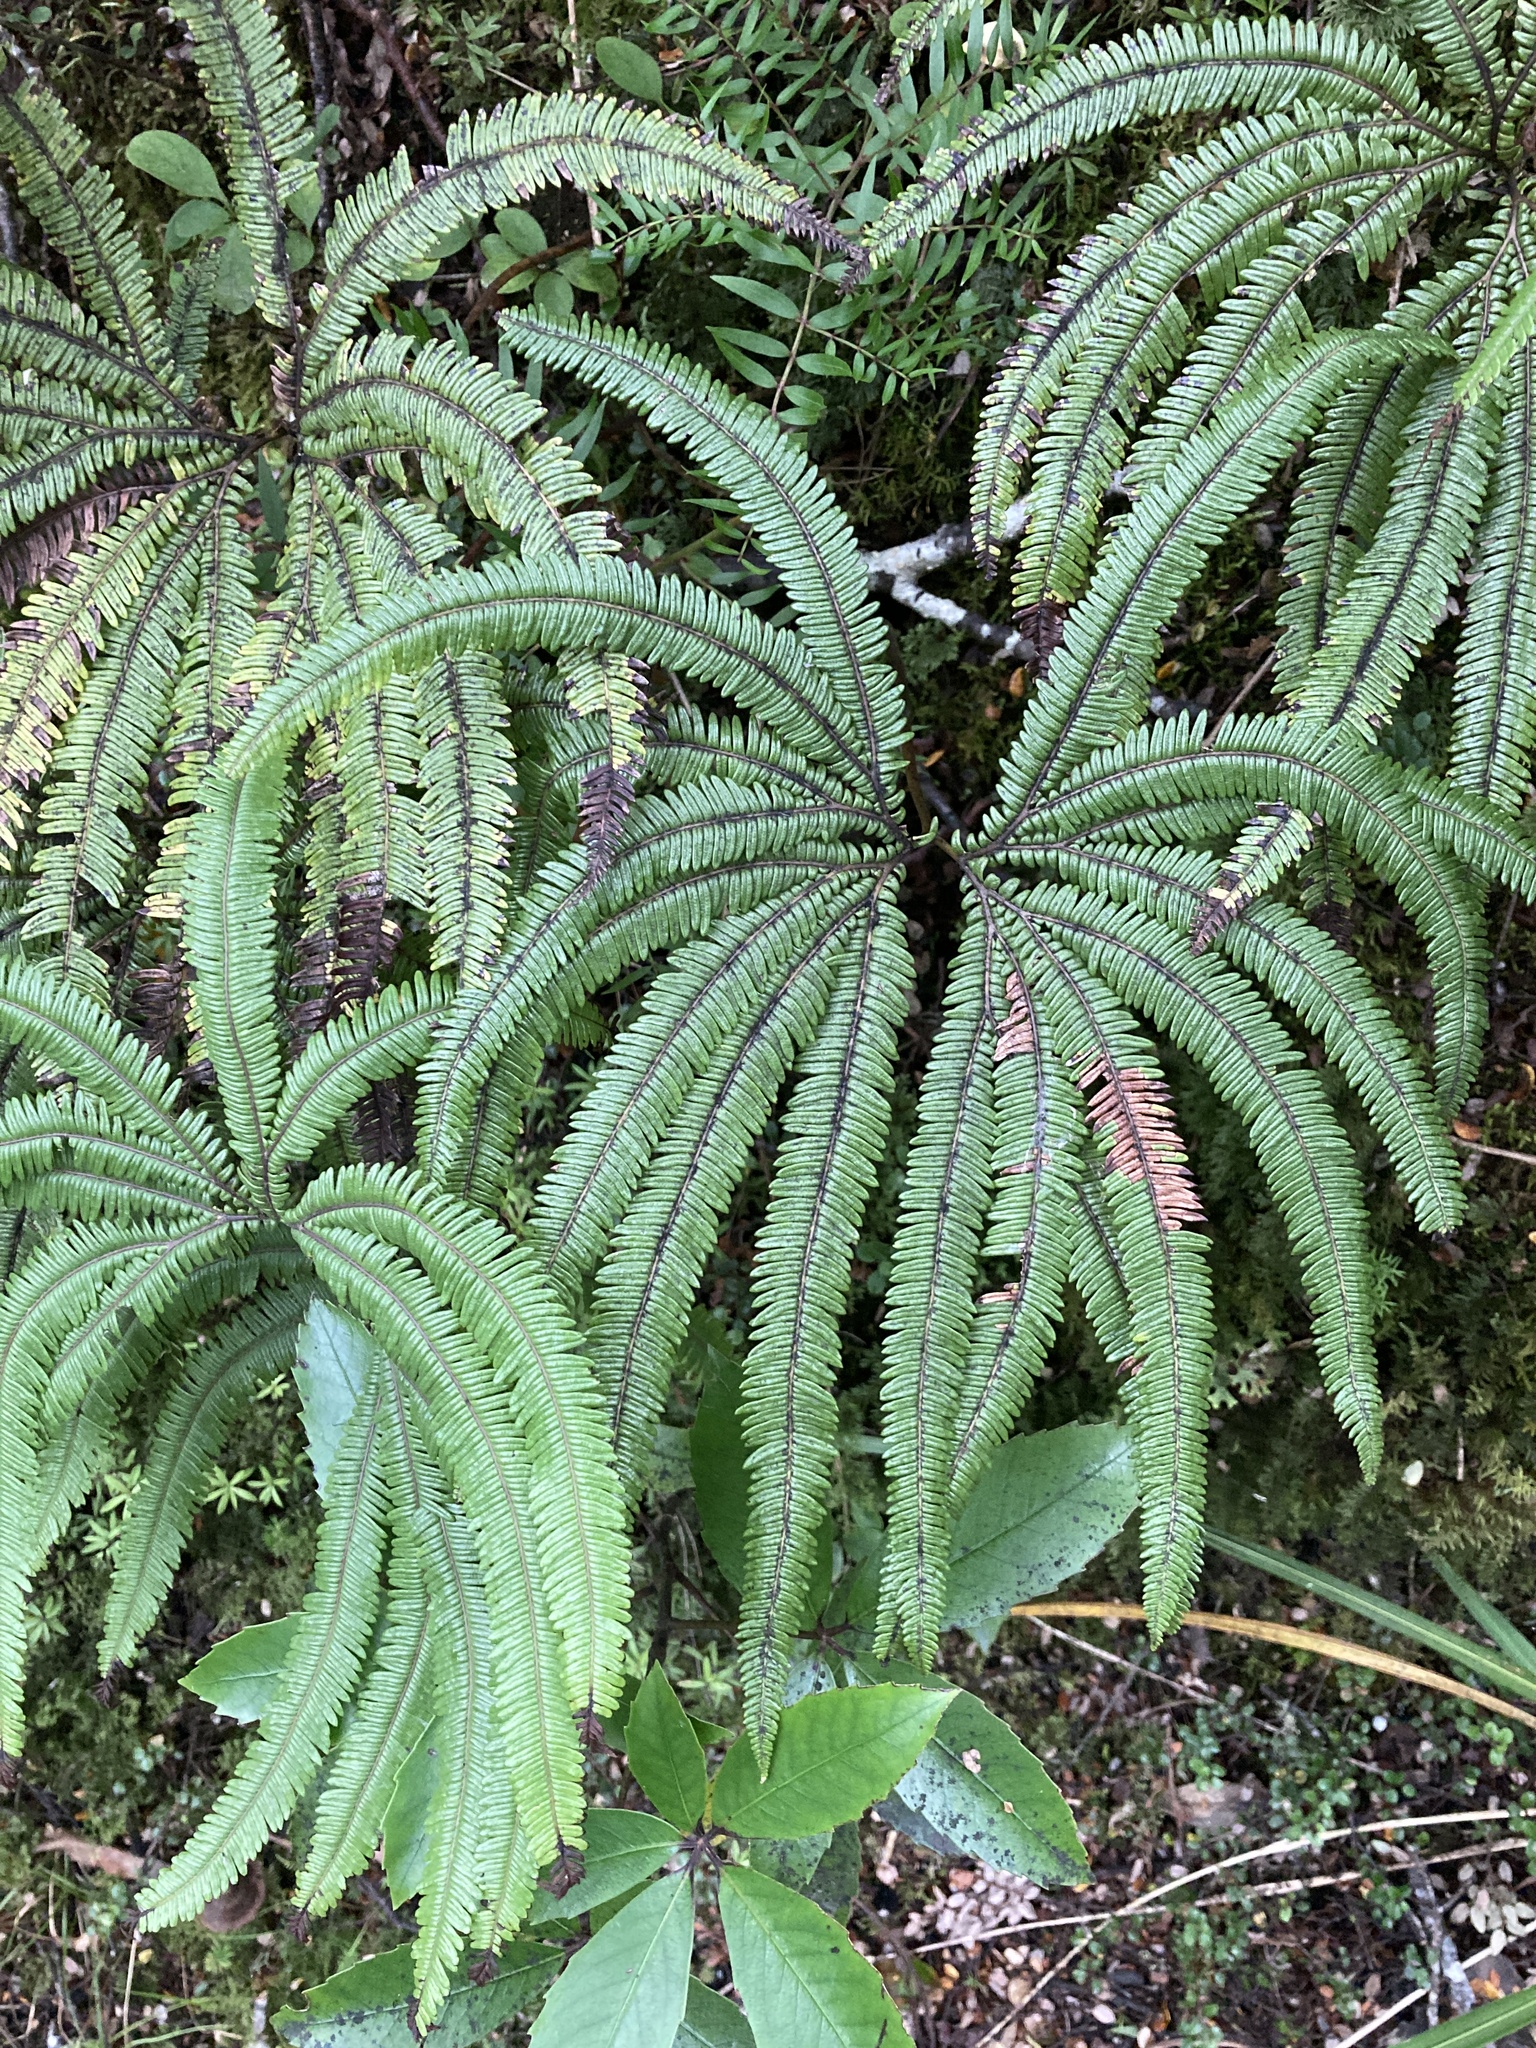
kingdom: Plantae
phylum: Tracheophyta
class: Polypodiopsida
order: Gleicheniales
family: Gleicheniaceae
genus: Sticherus
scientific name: Sticherus cunninghamii
